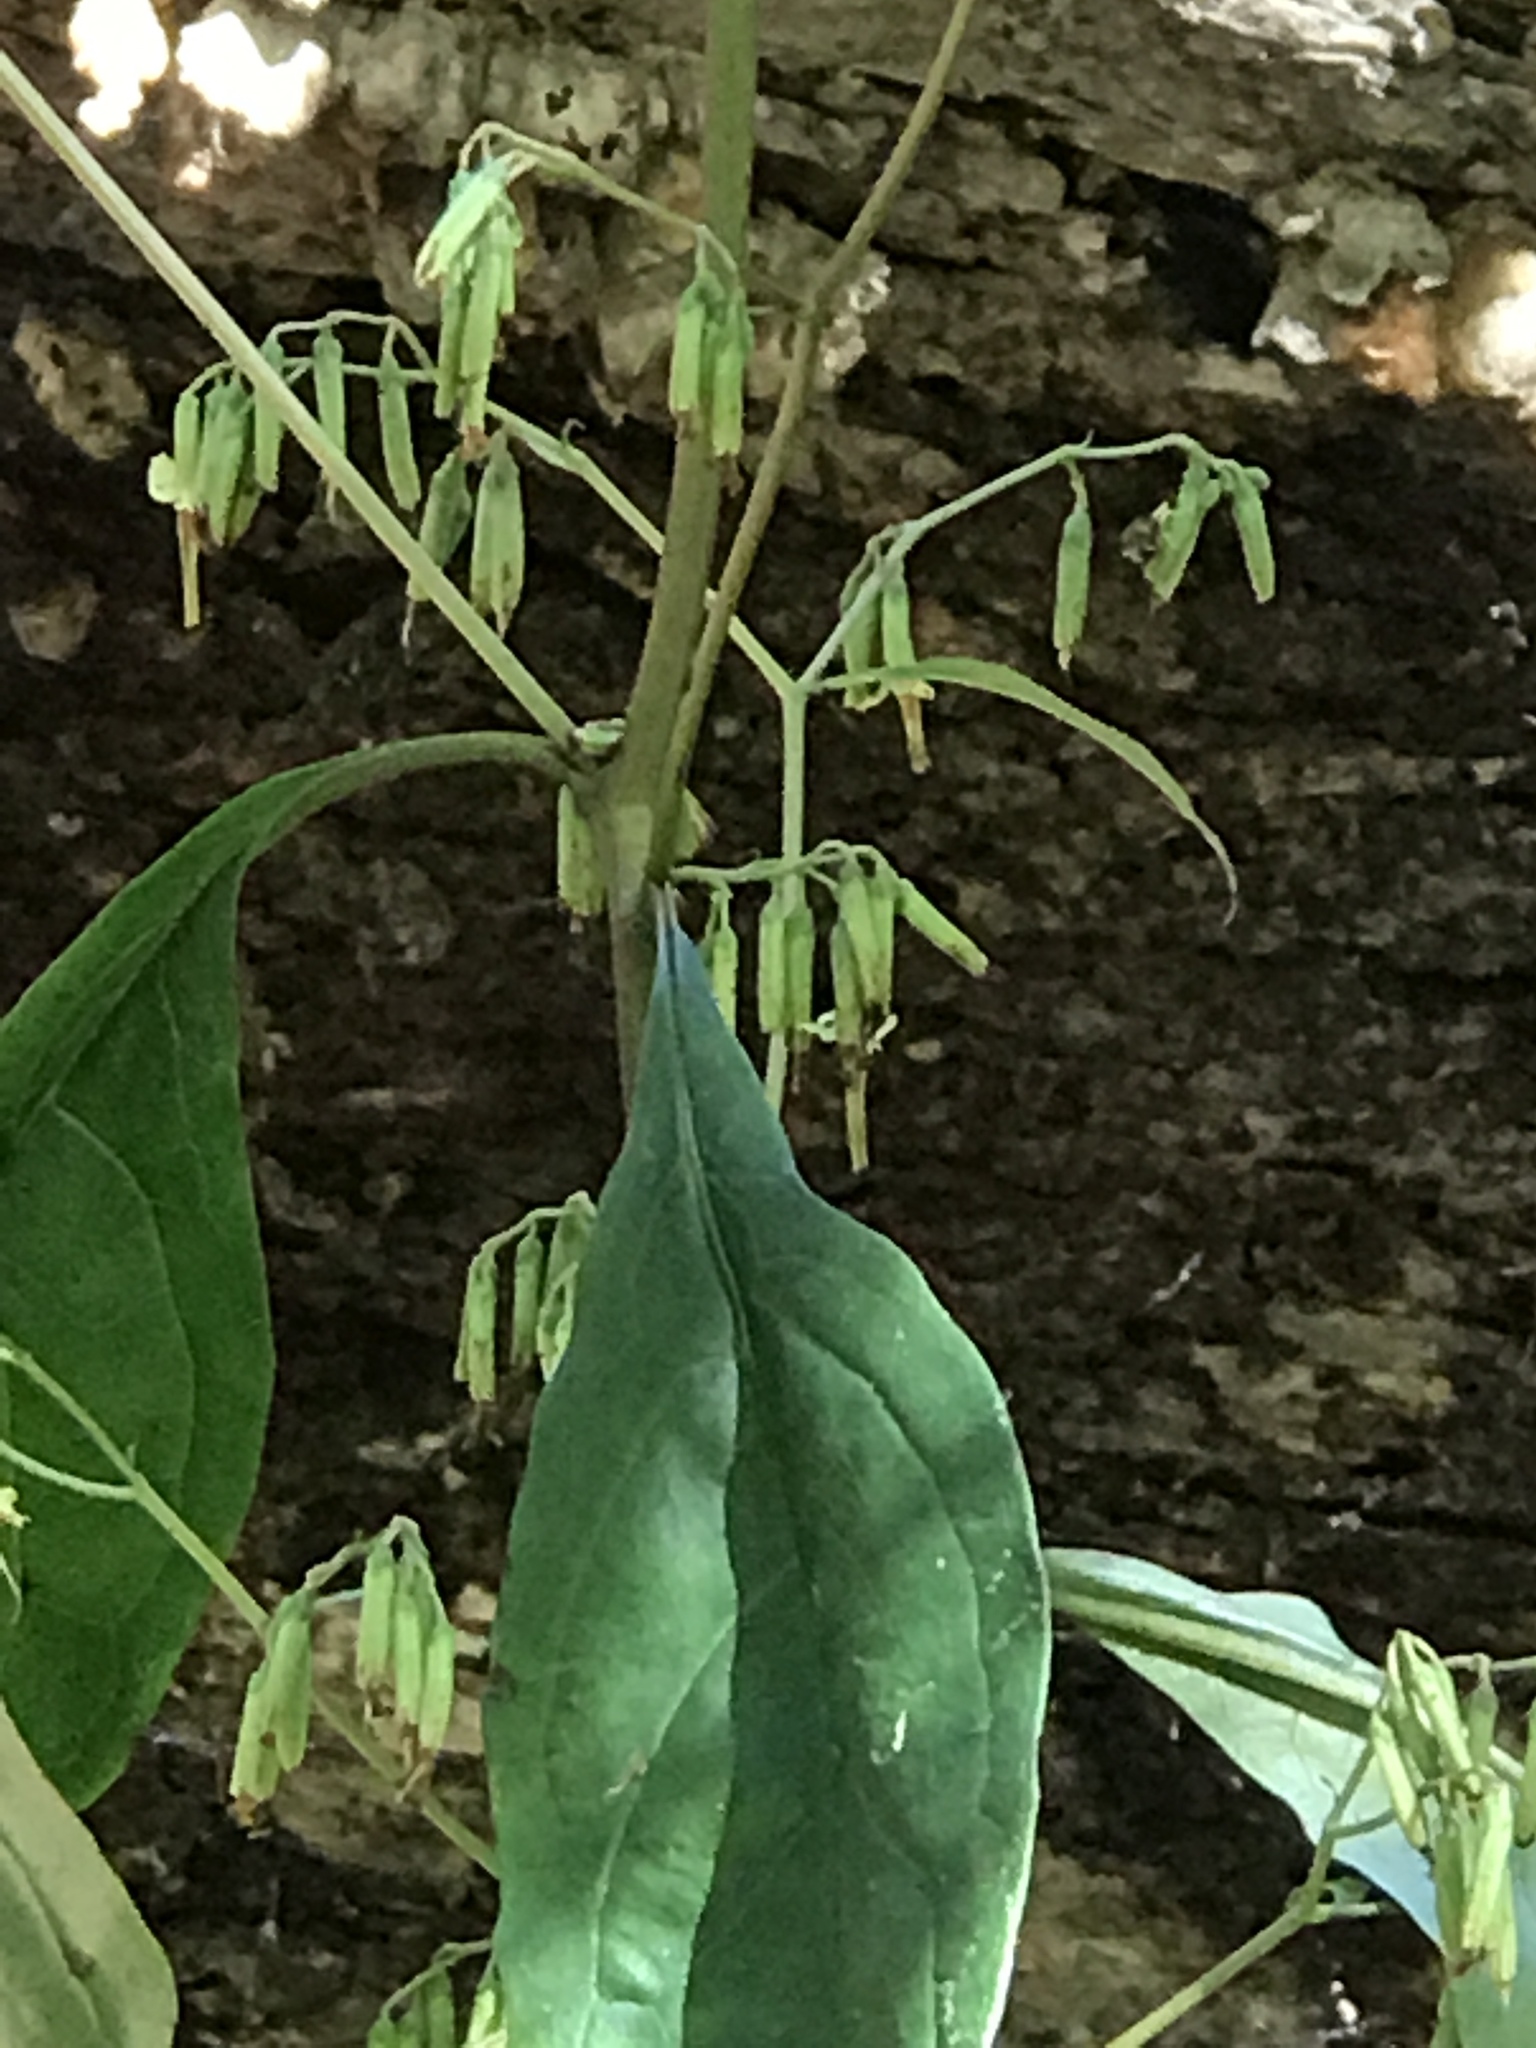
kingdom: Plantae
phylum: Tracheophyta
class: Magnoliopsida
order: Asterales
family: Asteraceae
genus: Nabalus
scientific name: Nabalus altissima
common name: Tall rattlesnakeroot
